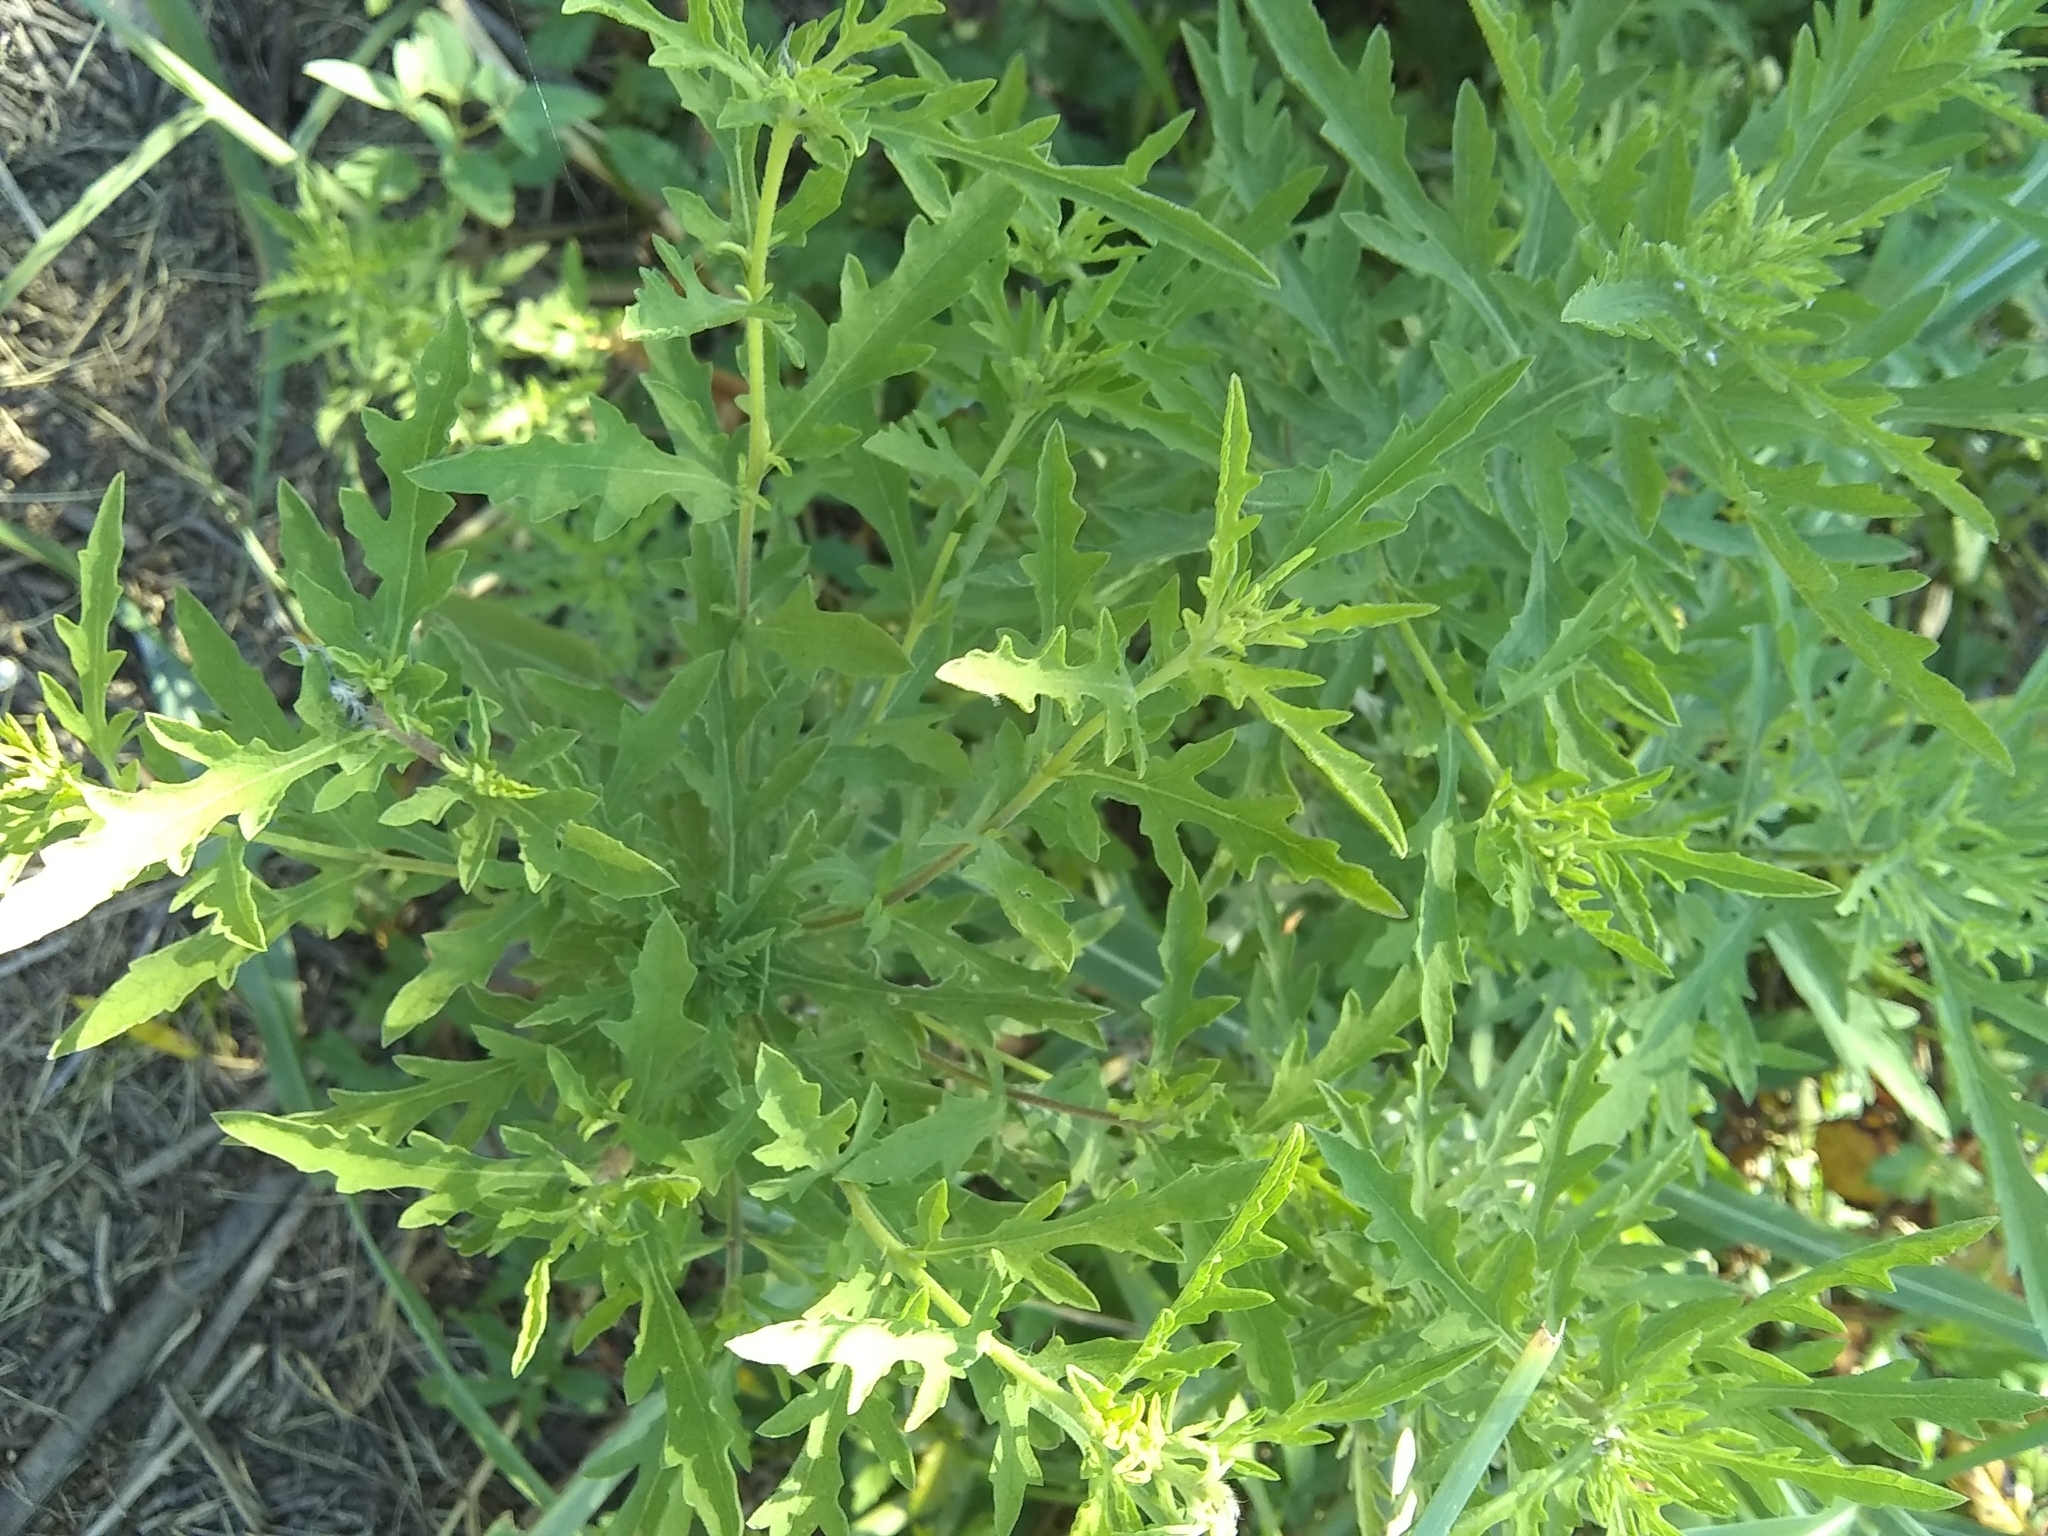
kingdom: Plantae
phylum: Tracheophyta
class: Magnoliopsida
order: Asterales
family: Asteraceae
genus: Ambrosia
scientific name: Ambrosia psilostachya
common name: Perennial ragweed
